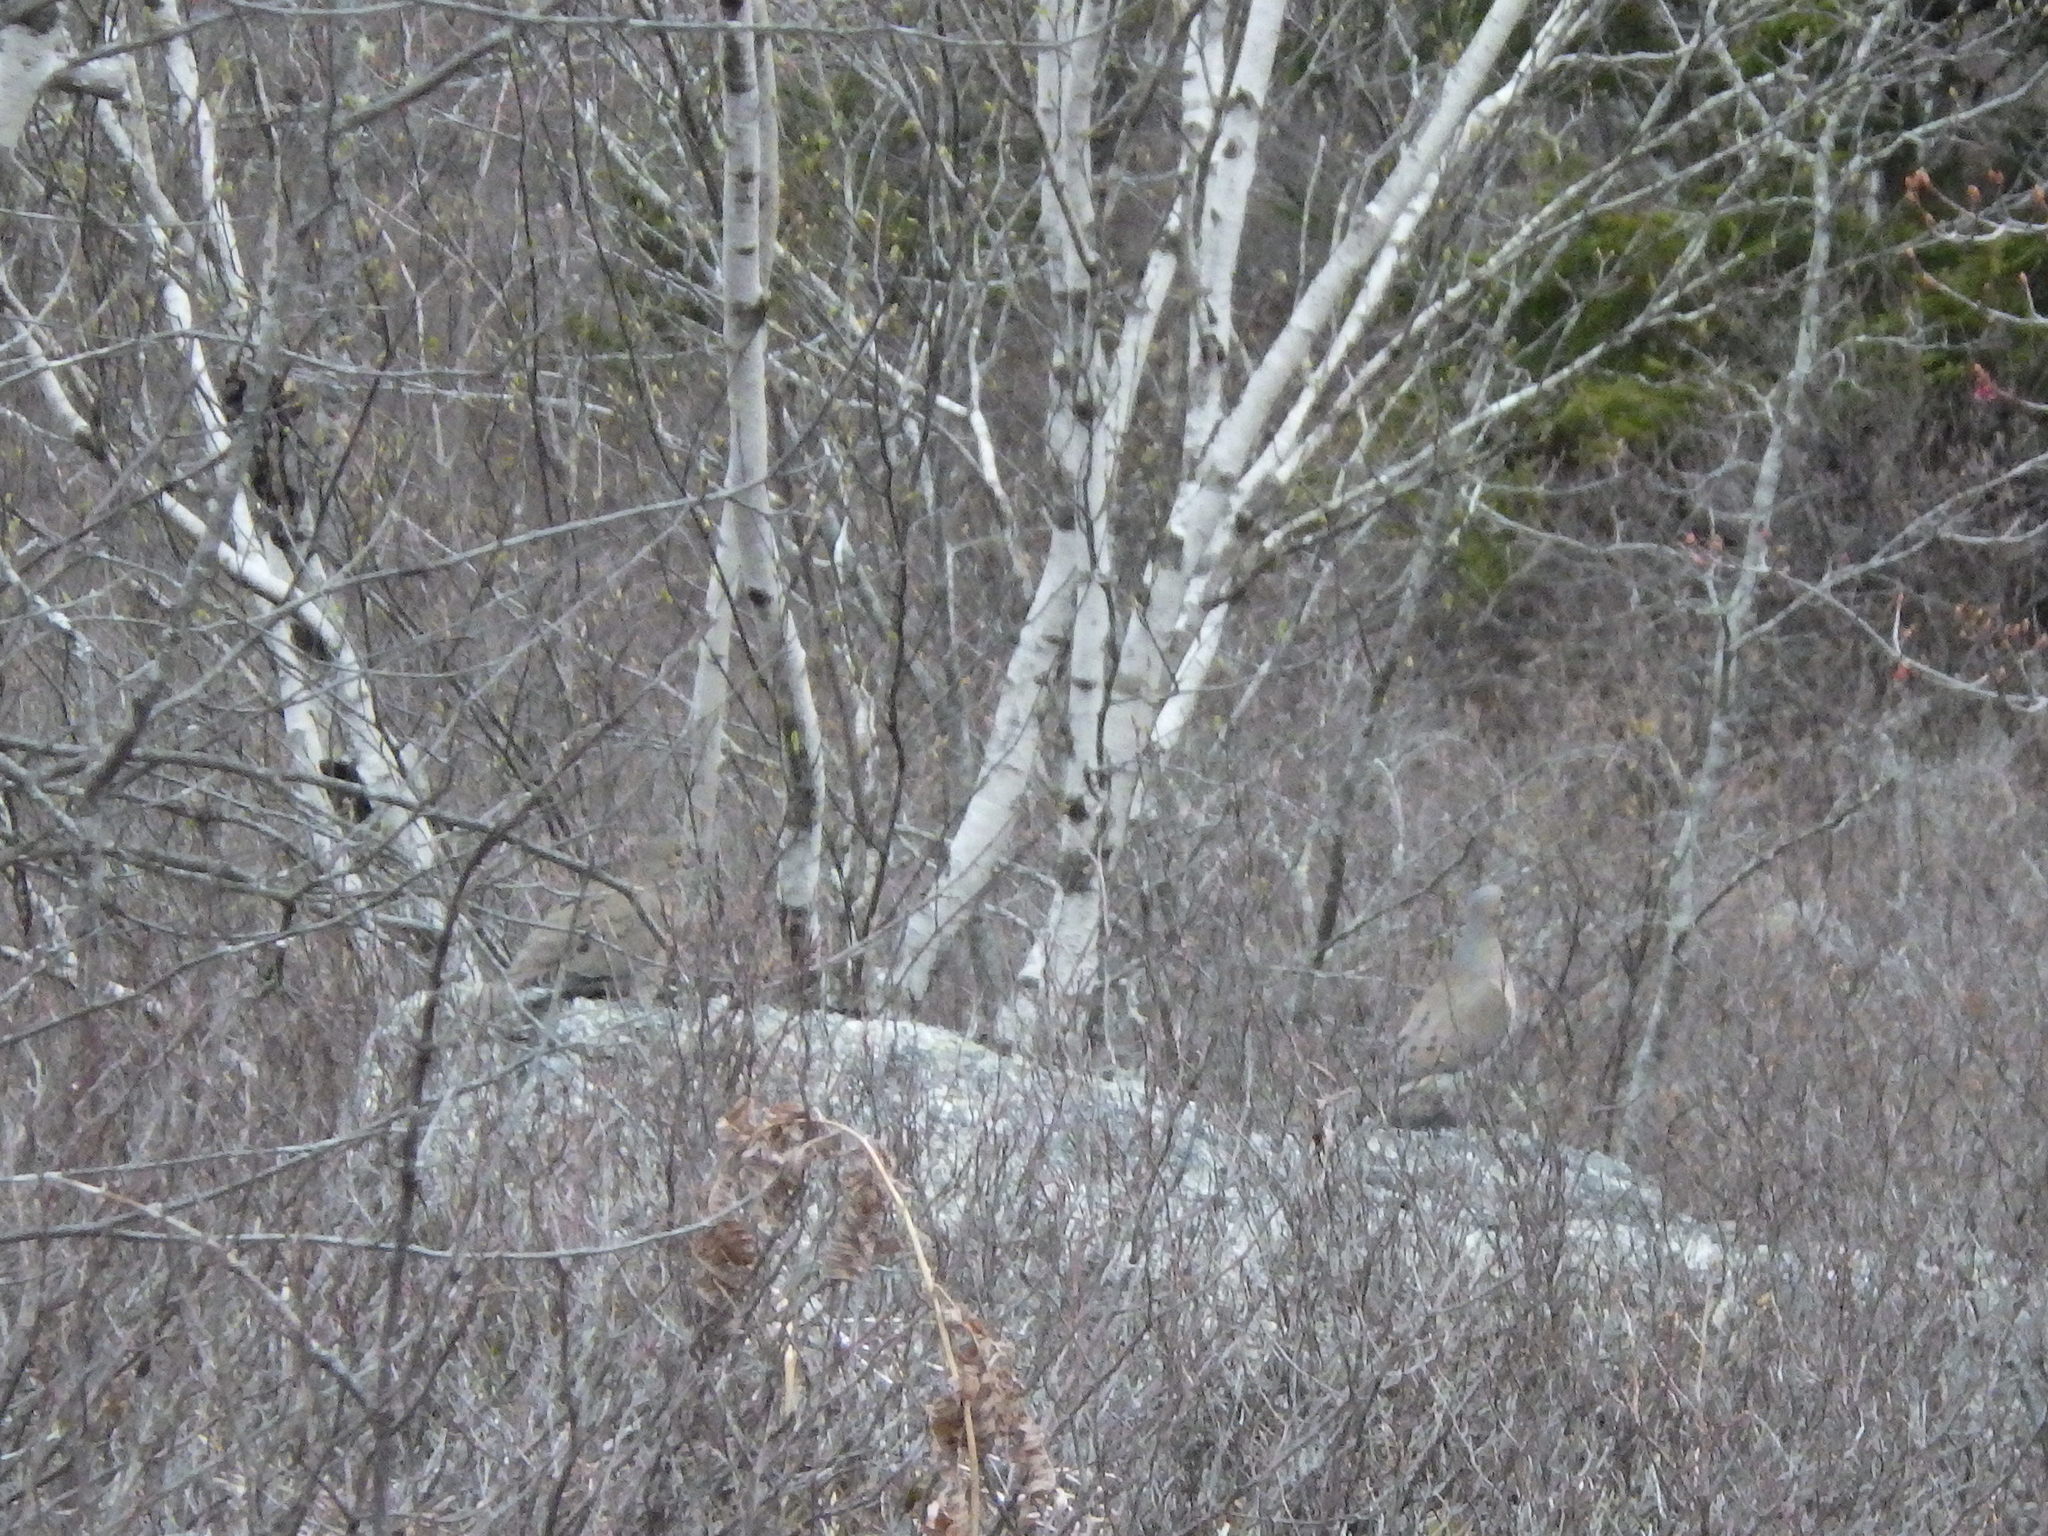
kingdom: Animalia
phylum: Chordata
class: Aves
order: Columbiformes
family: Columbidae
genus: Zenaida
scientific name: Zenaida macroura
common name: Mourning dove
